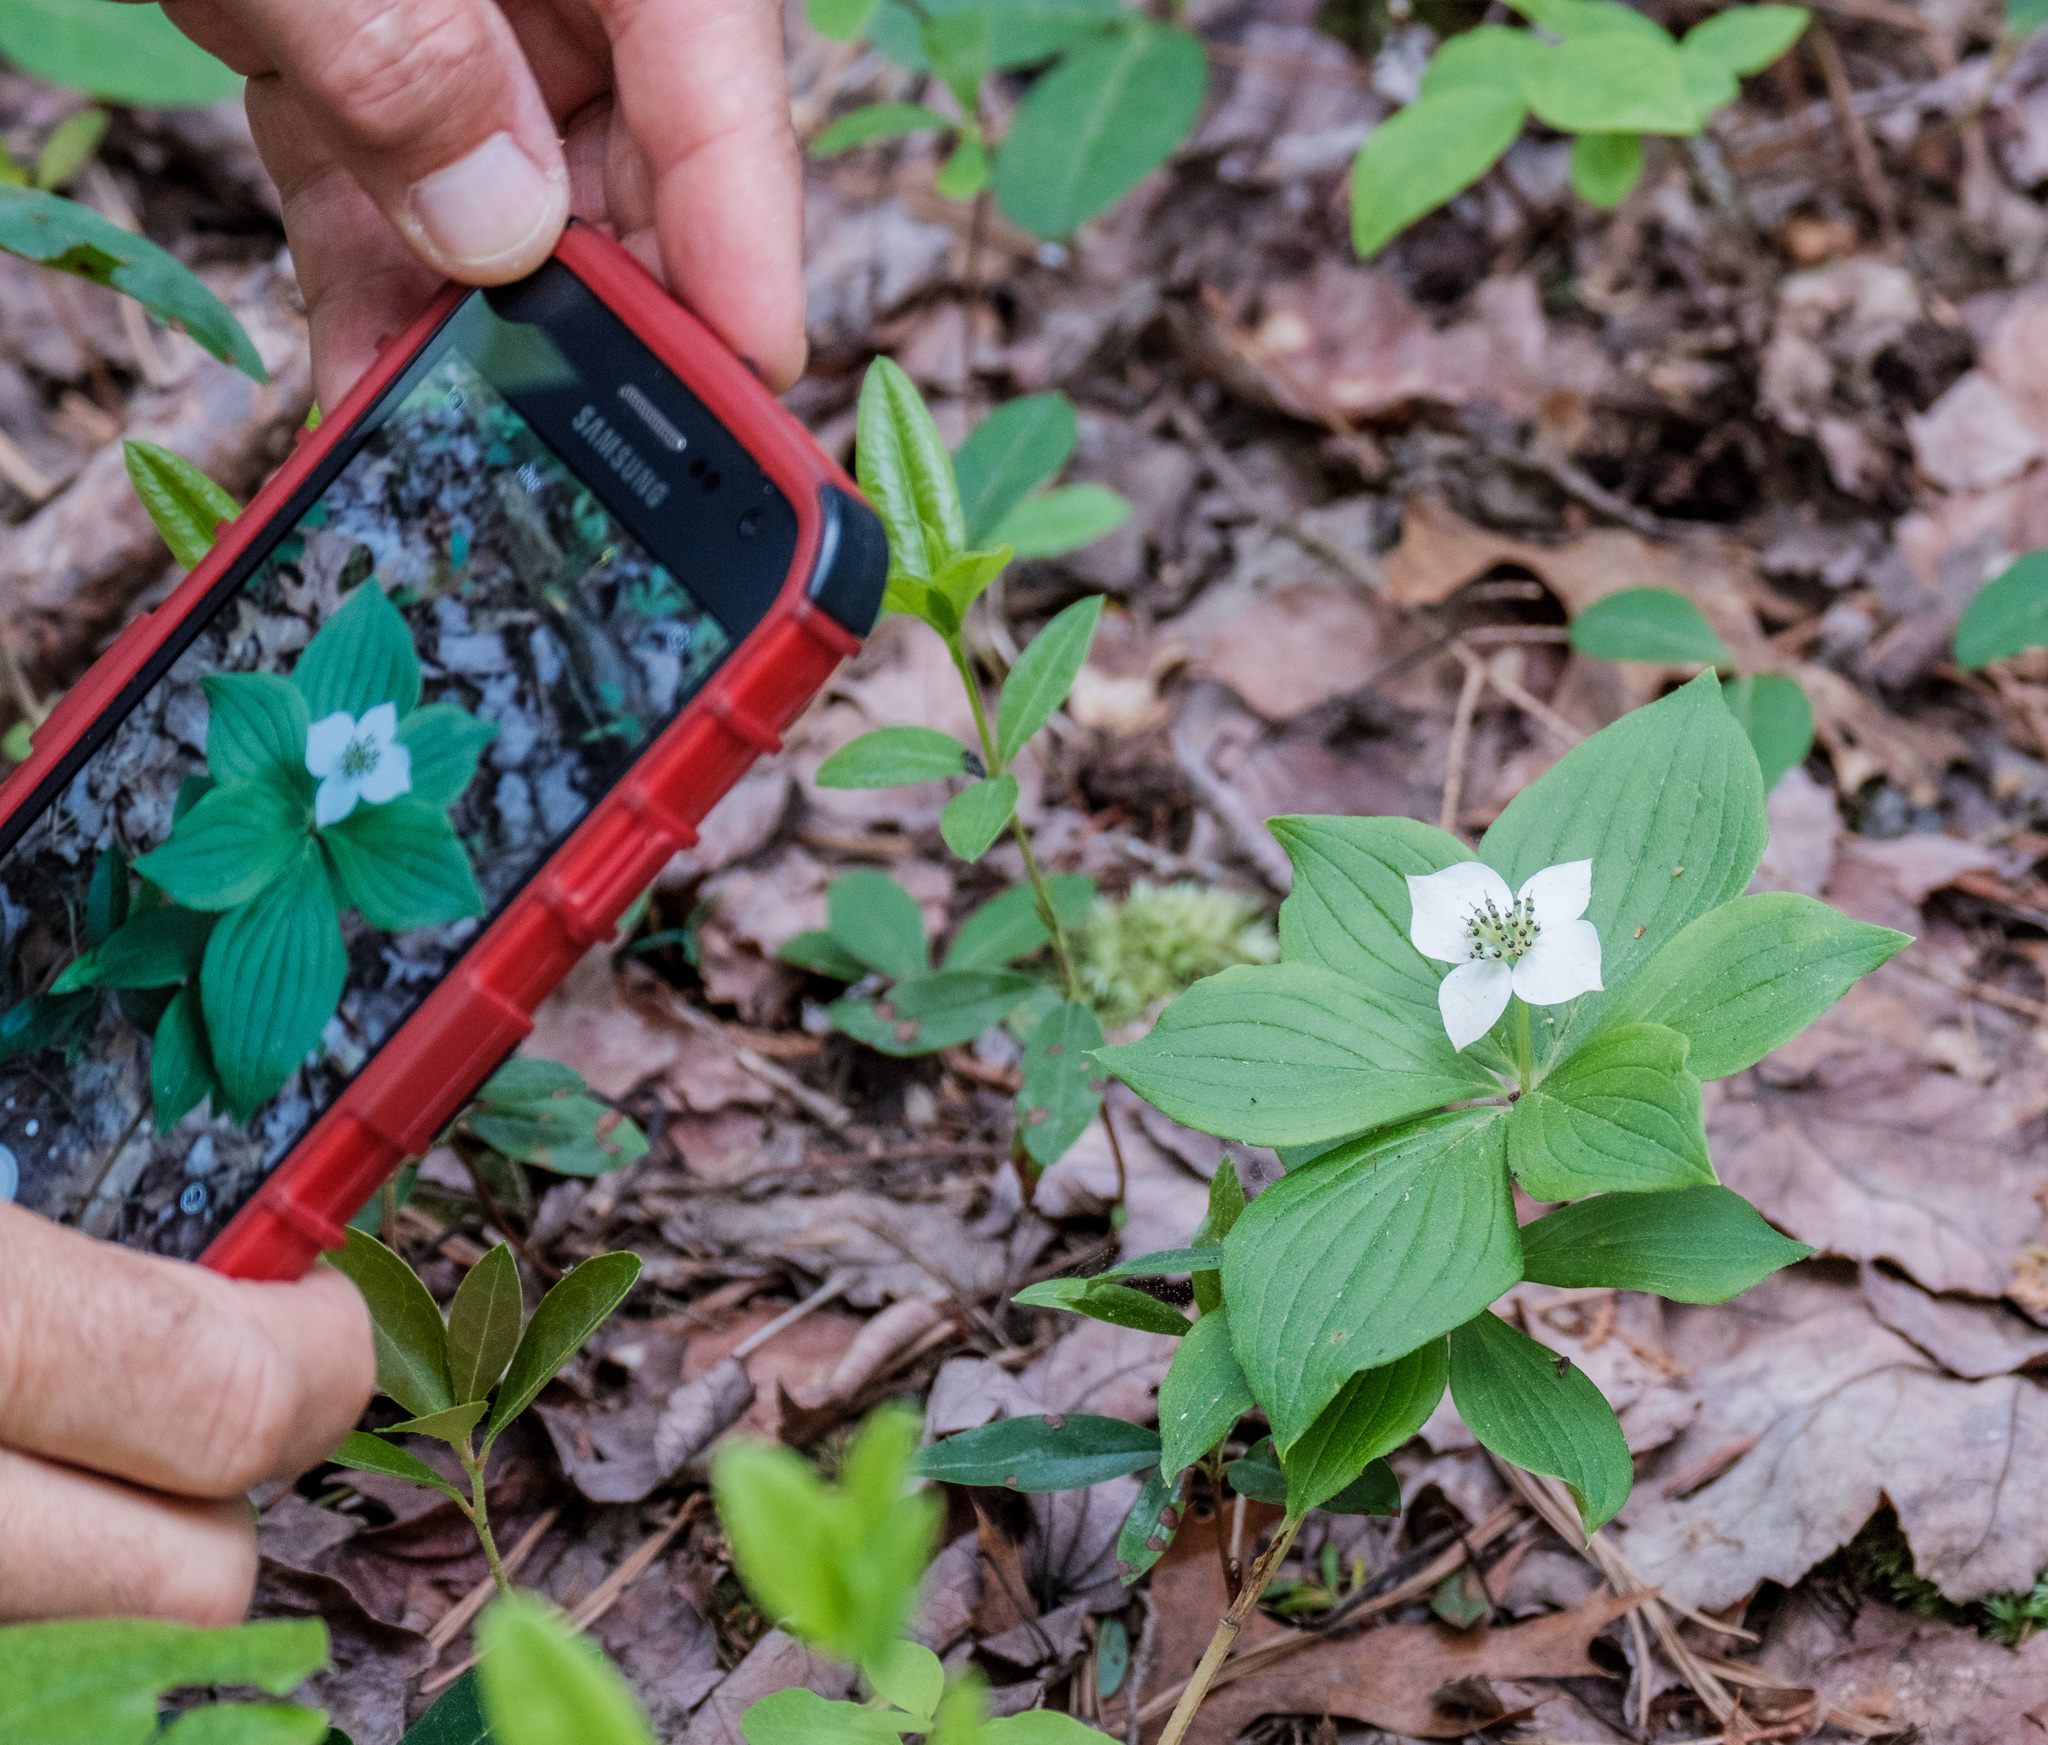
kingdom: Plantae
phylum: Tracheophyta
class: Magnoliopsida
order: Cornales
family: Cornaceae
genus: Cornus
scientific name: Cornus canadensis
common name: Creeping dogwood
